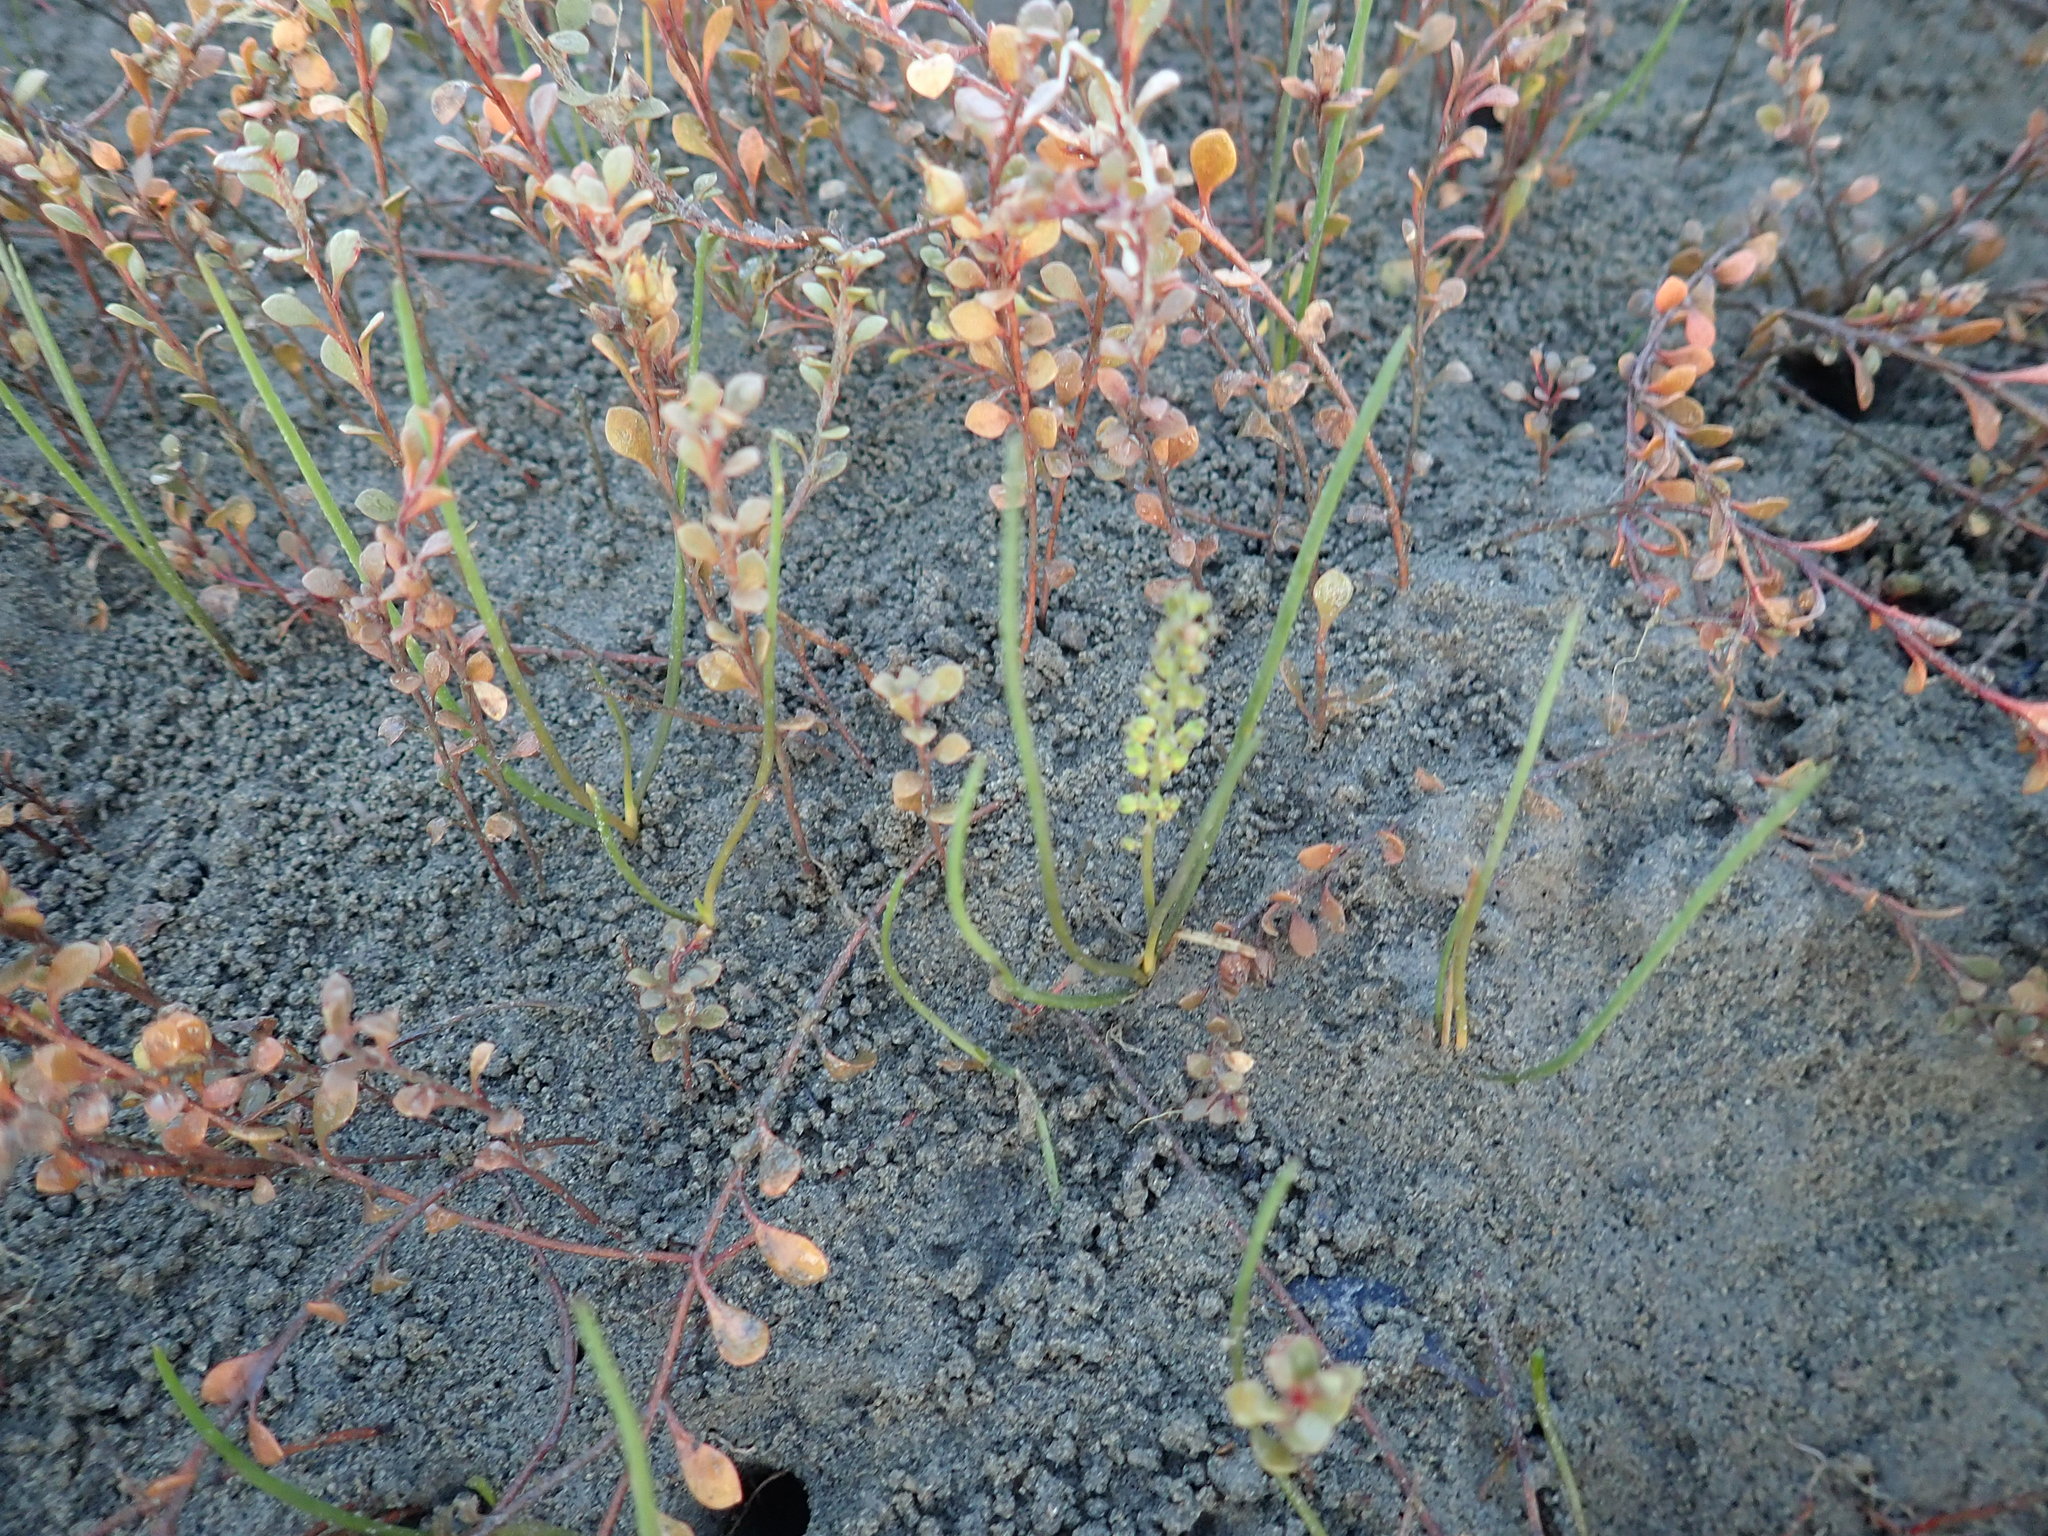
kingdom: Plantae
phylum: Tracheophyta
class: Liliopsida
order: Alismatales
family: Juncaginaceae
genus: Triglochin
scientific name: Triglochin striata
